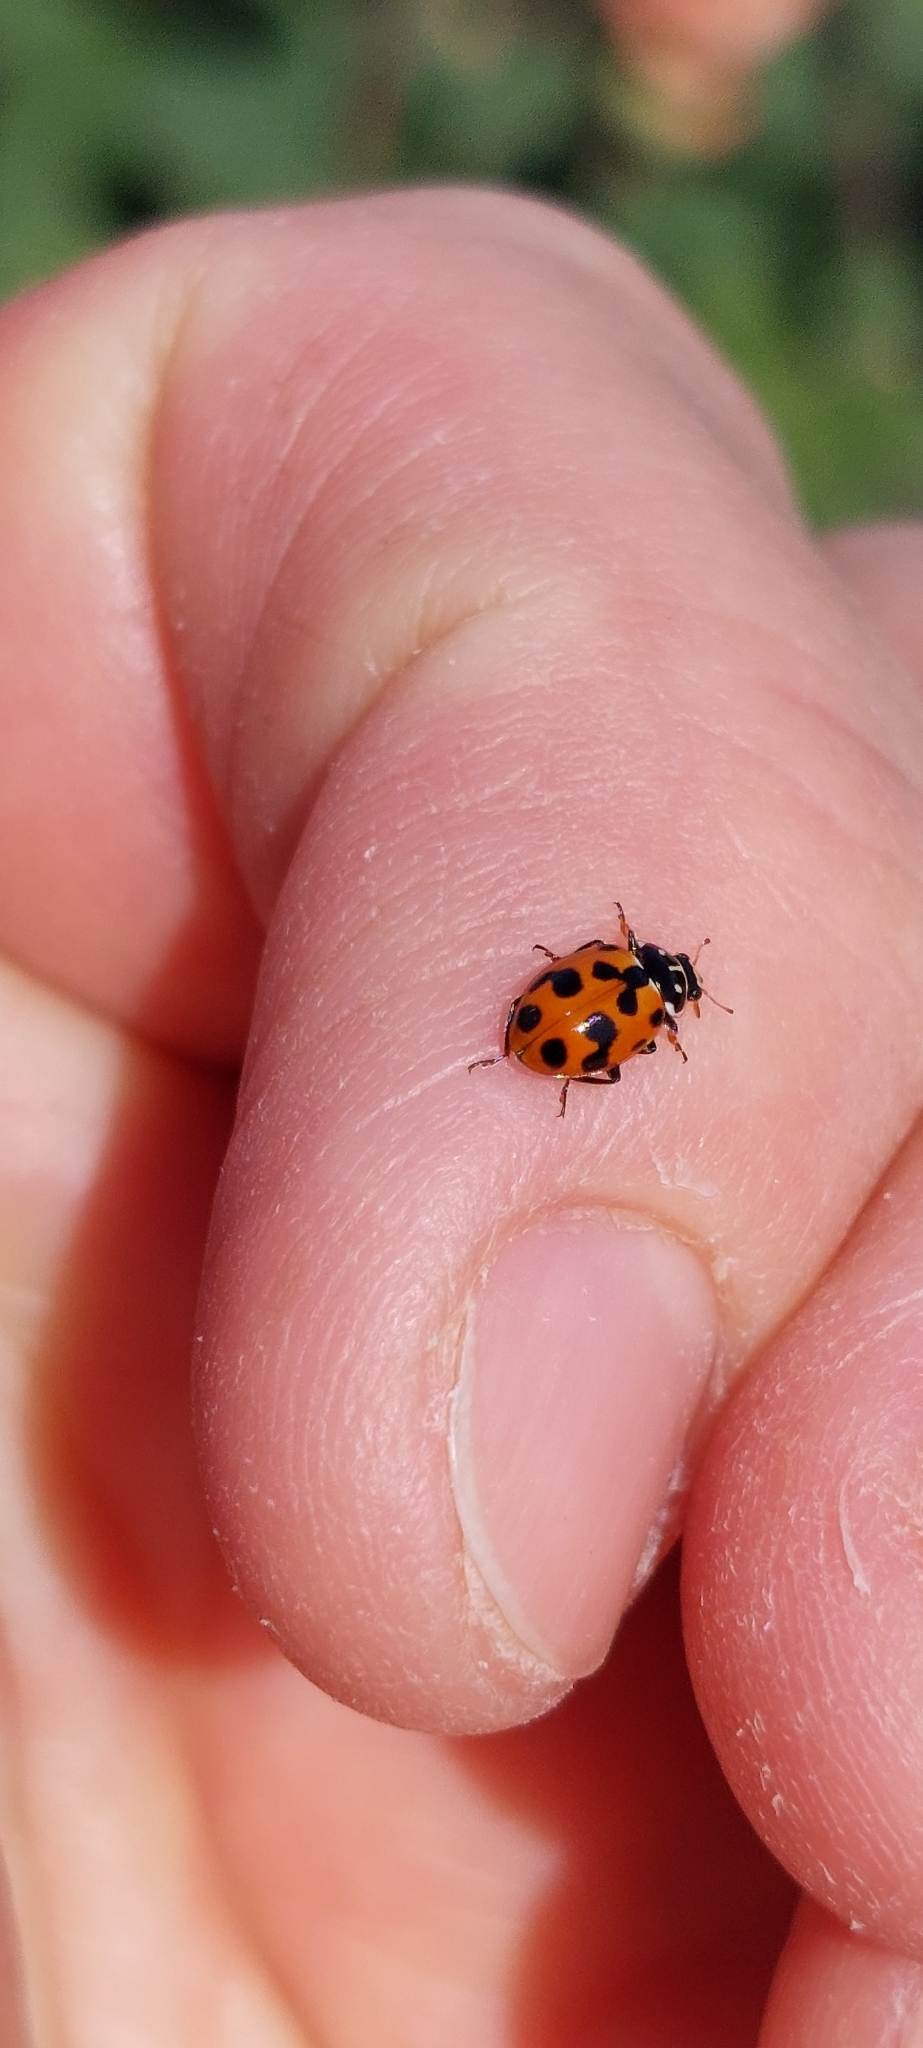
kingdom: Animalia
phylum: Arthropoda
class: Insecta
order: Coleoptera
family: Coccinellidae
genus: Hippodamia
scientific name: Hippodamia variegata
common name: Ladybird beetle
